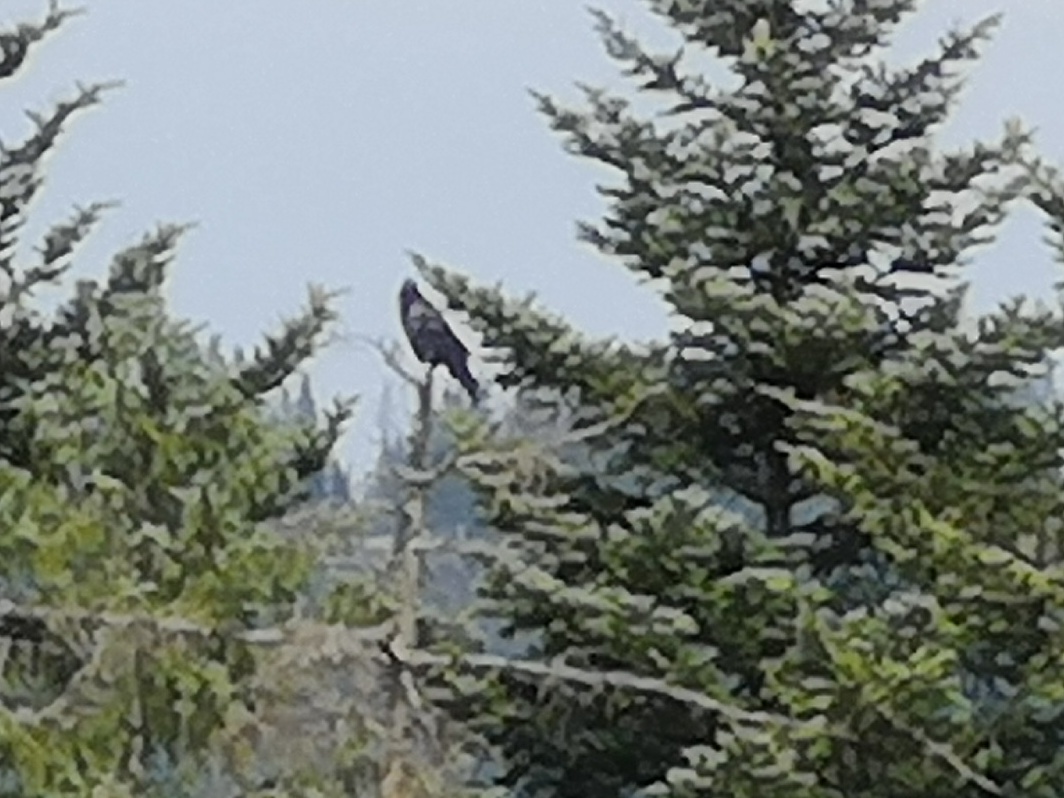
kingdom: Animalia
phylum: Chordata
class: Aves
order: Passeriformes
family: Corvidae
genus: Corvus
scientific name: Corvus corax
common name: Common raven
